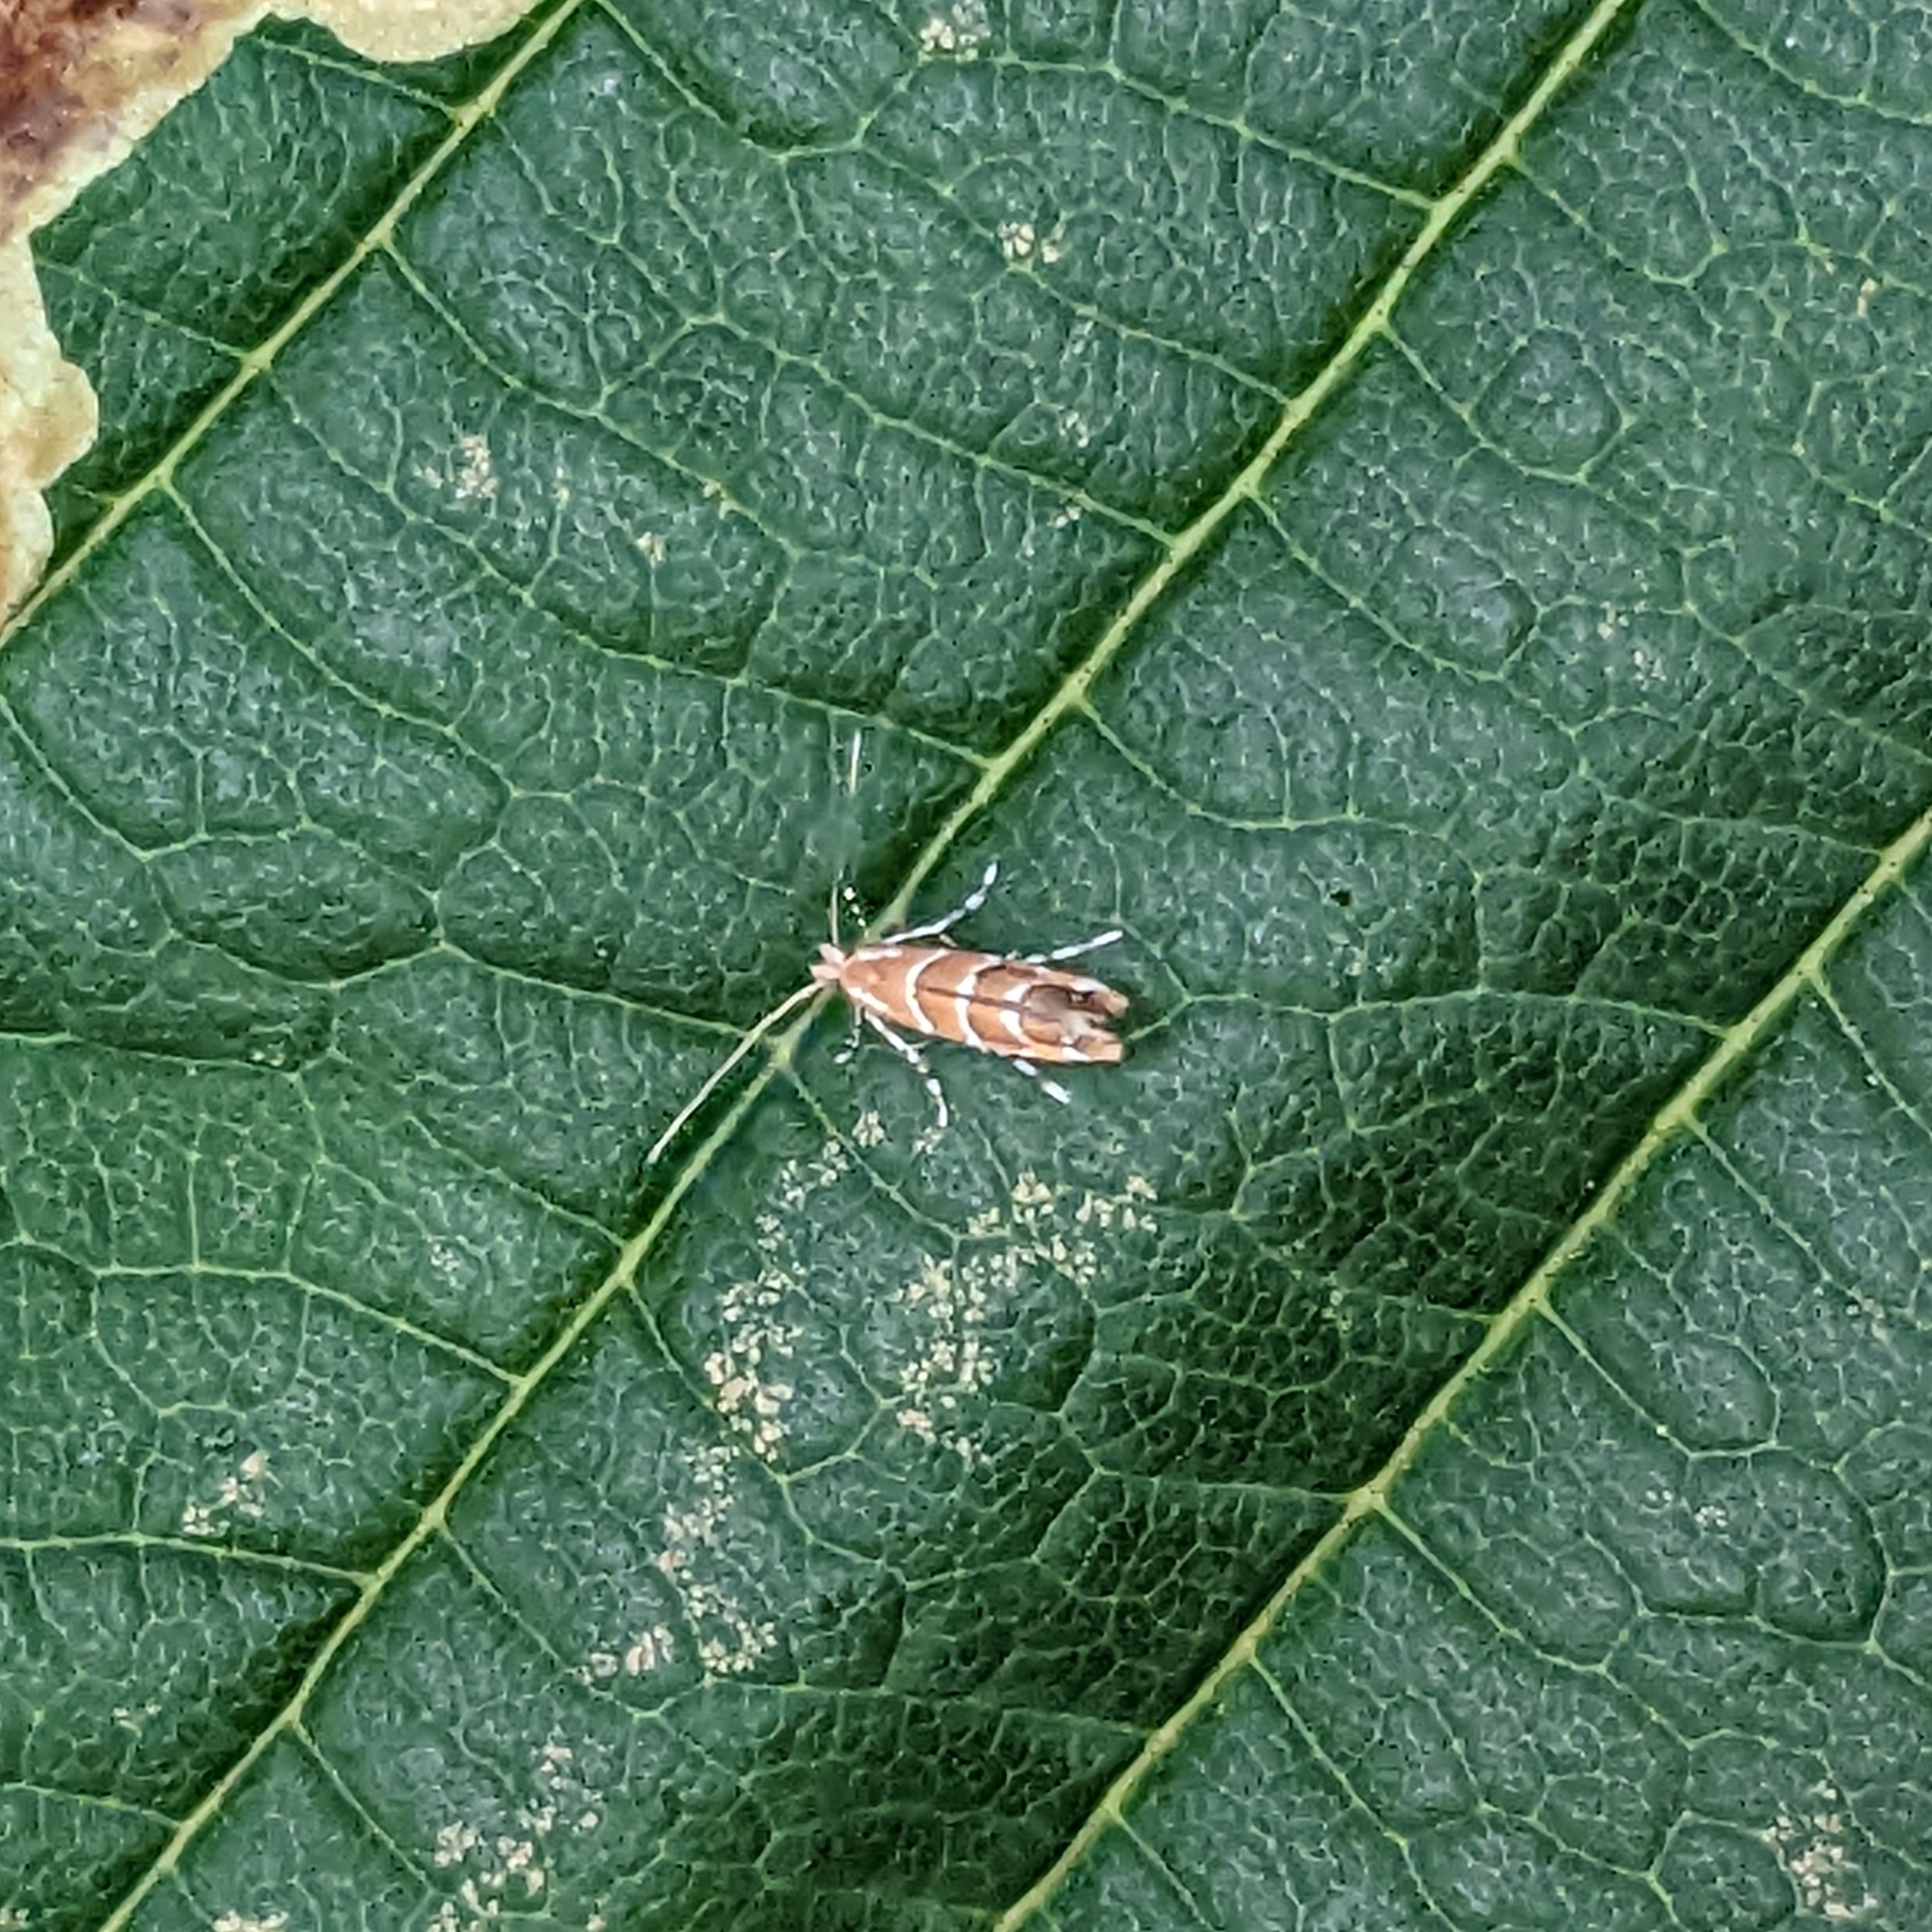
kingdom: Animalia
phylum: Arthropoda
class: Insecta
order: Lepidoptera
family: Gracillariidae
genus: Cameraria
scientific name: Cameraria ohridella
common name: Horse-chestnut leaf-miner
